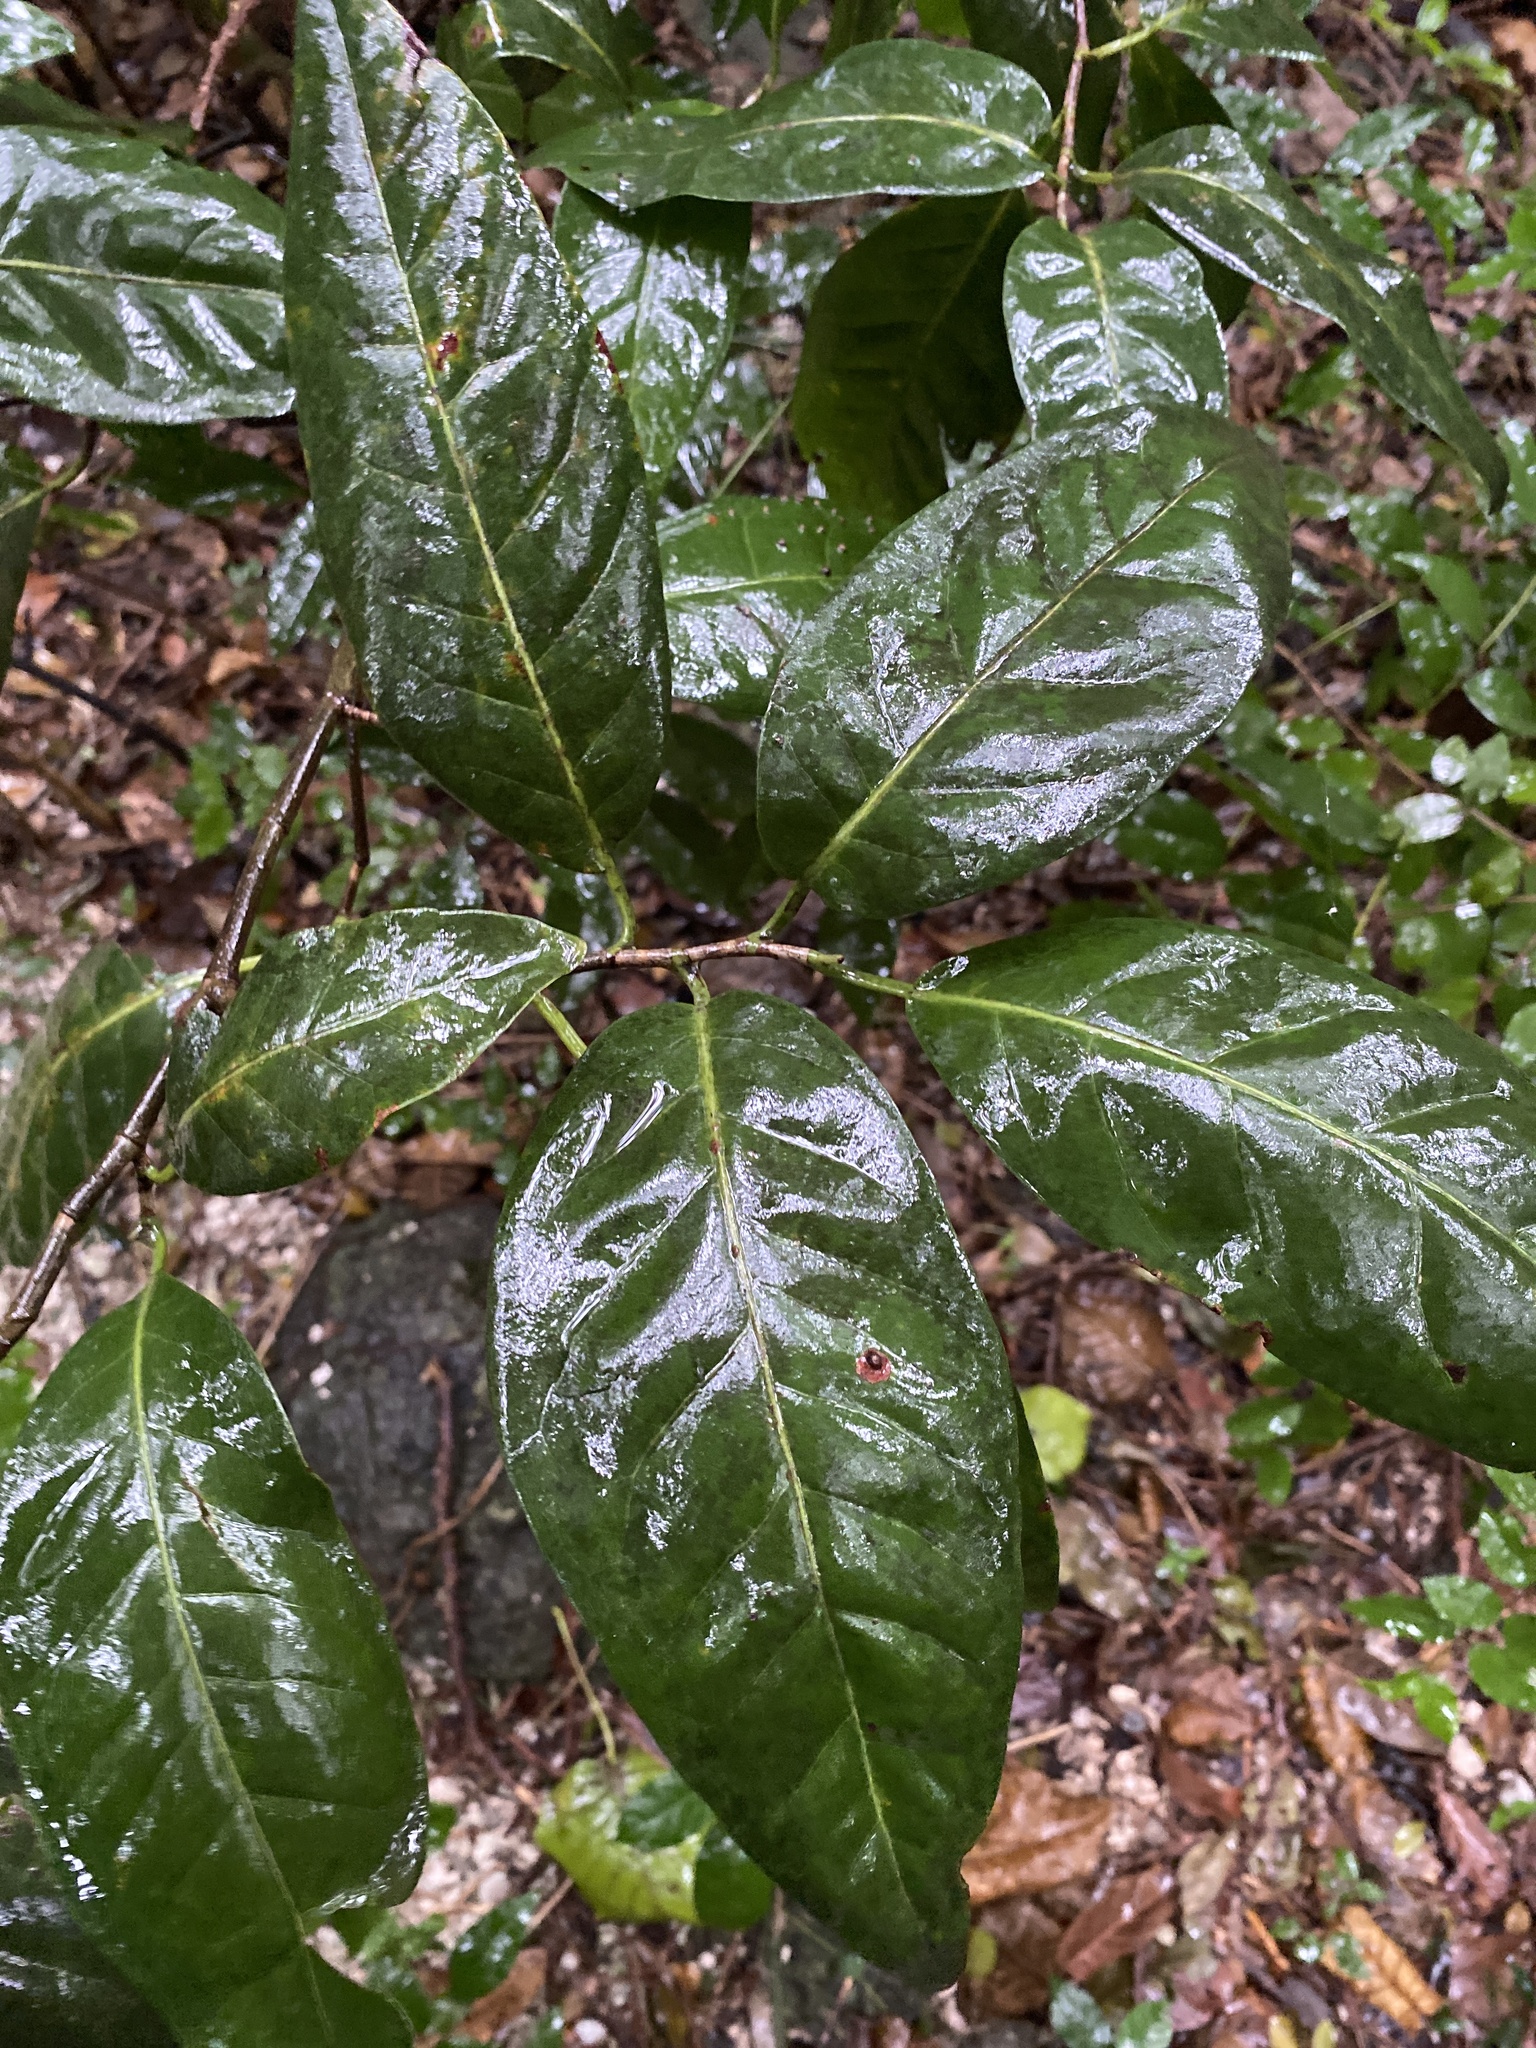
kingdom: Plantae
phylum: Tracheophyta
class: Magnoliopsida
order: Caryophyllales
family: Polygonaceae
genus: Coccoloba
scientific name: Coccoloba diversifolia
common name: Pigeon-plum
